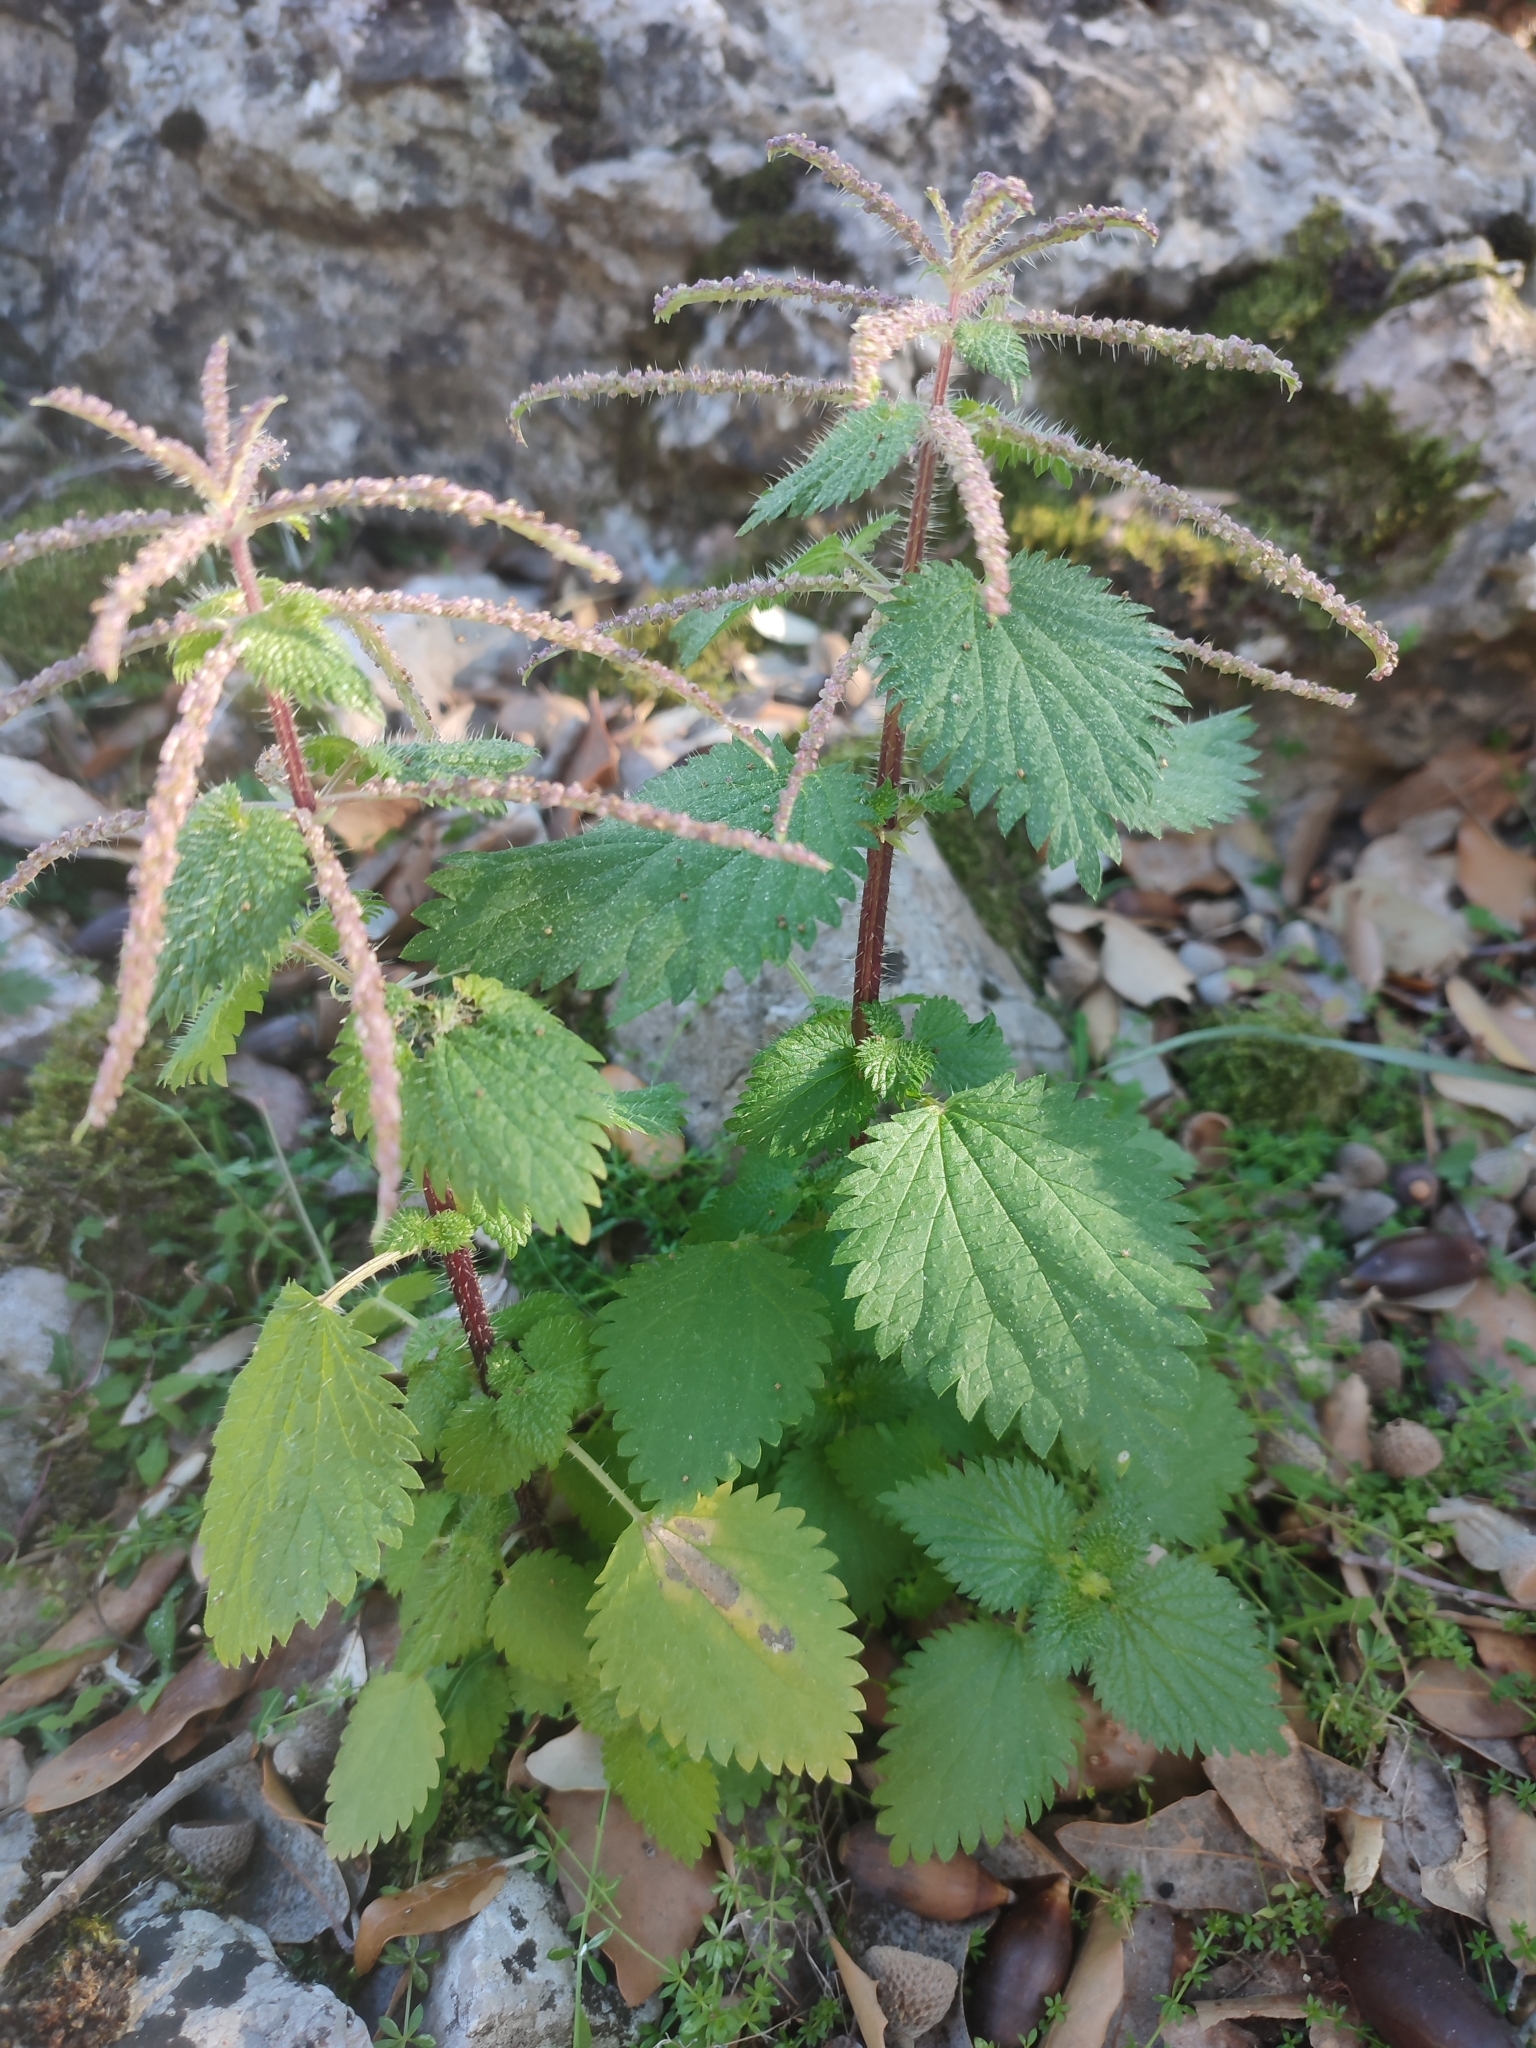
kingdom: Plantae
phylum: Tracheophyta
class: Magnoliopsida
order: Rosales
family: Urticaceae
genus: Urtica
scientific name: Urtica membranacea
